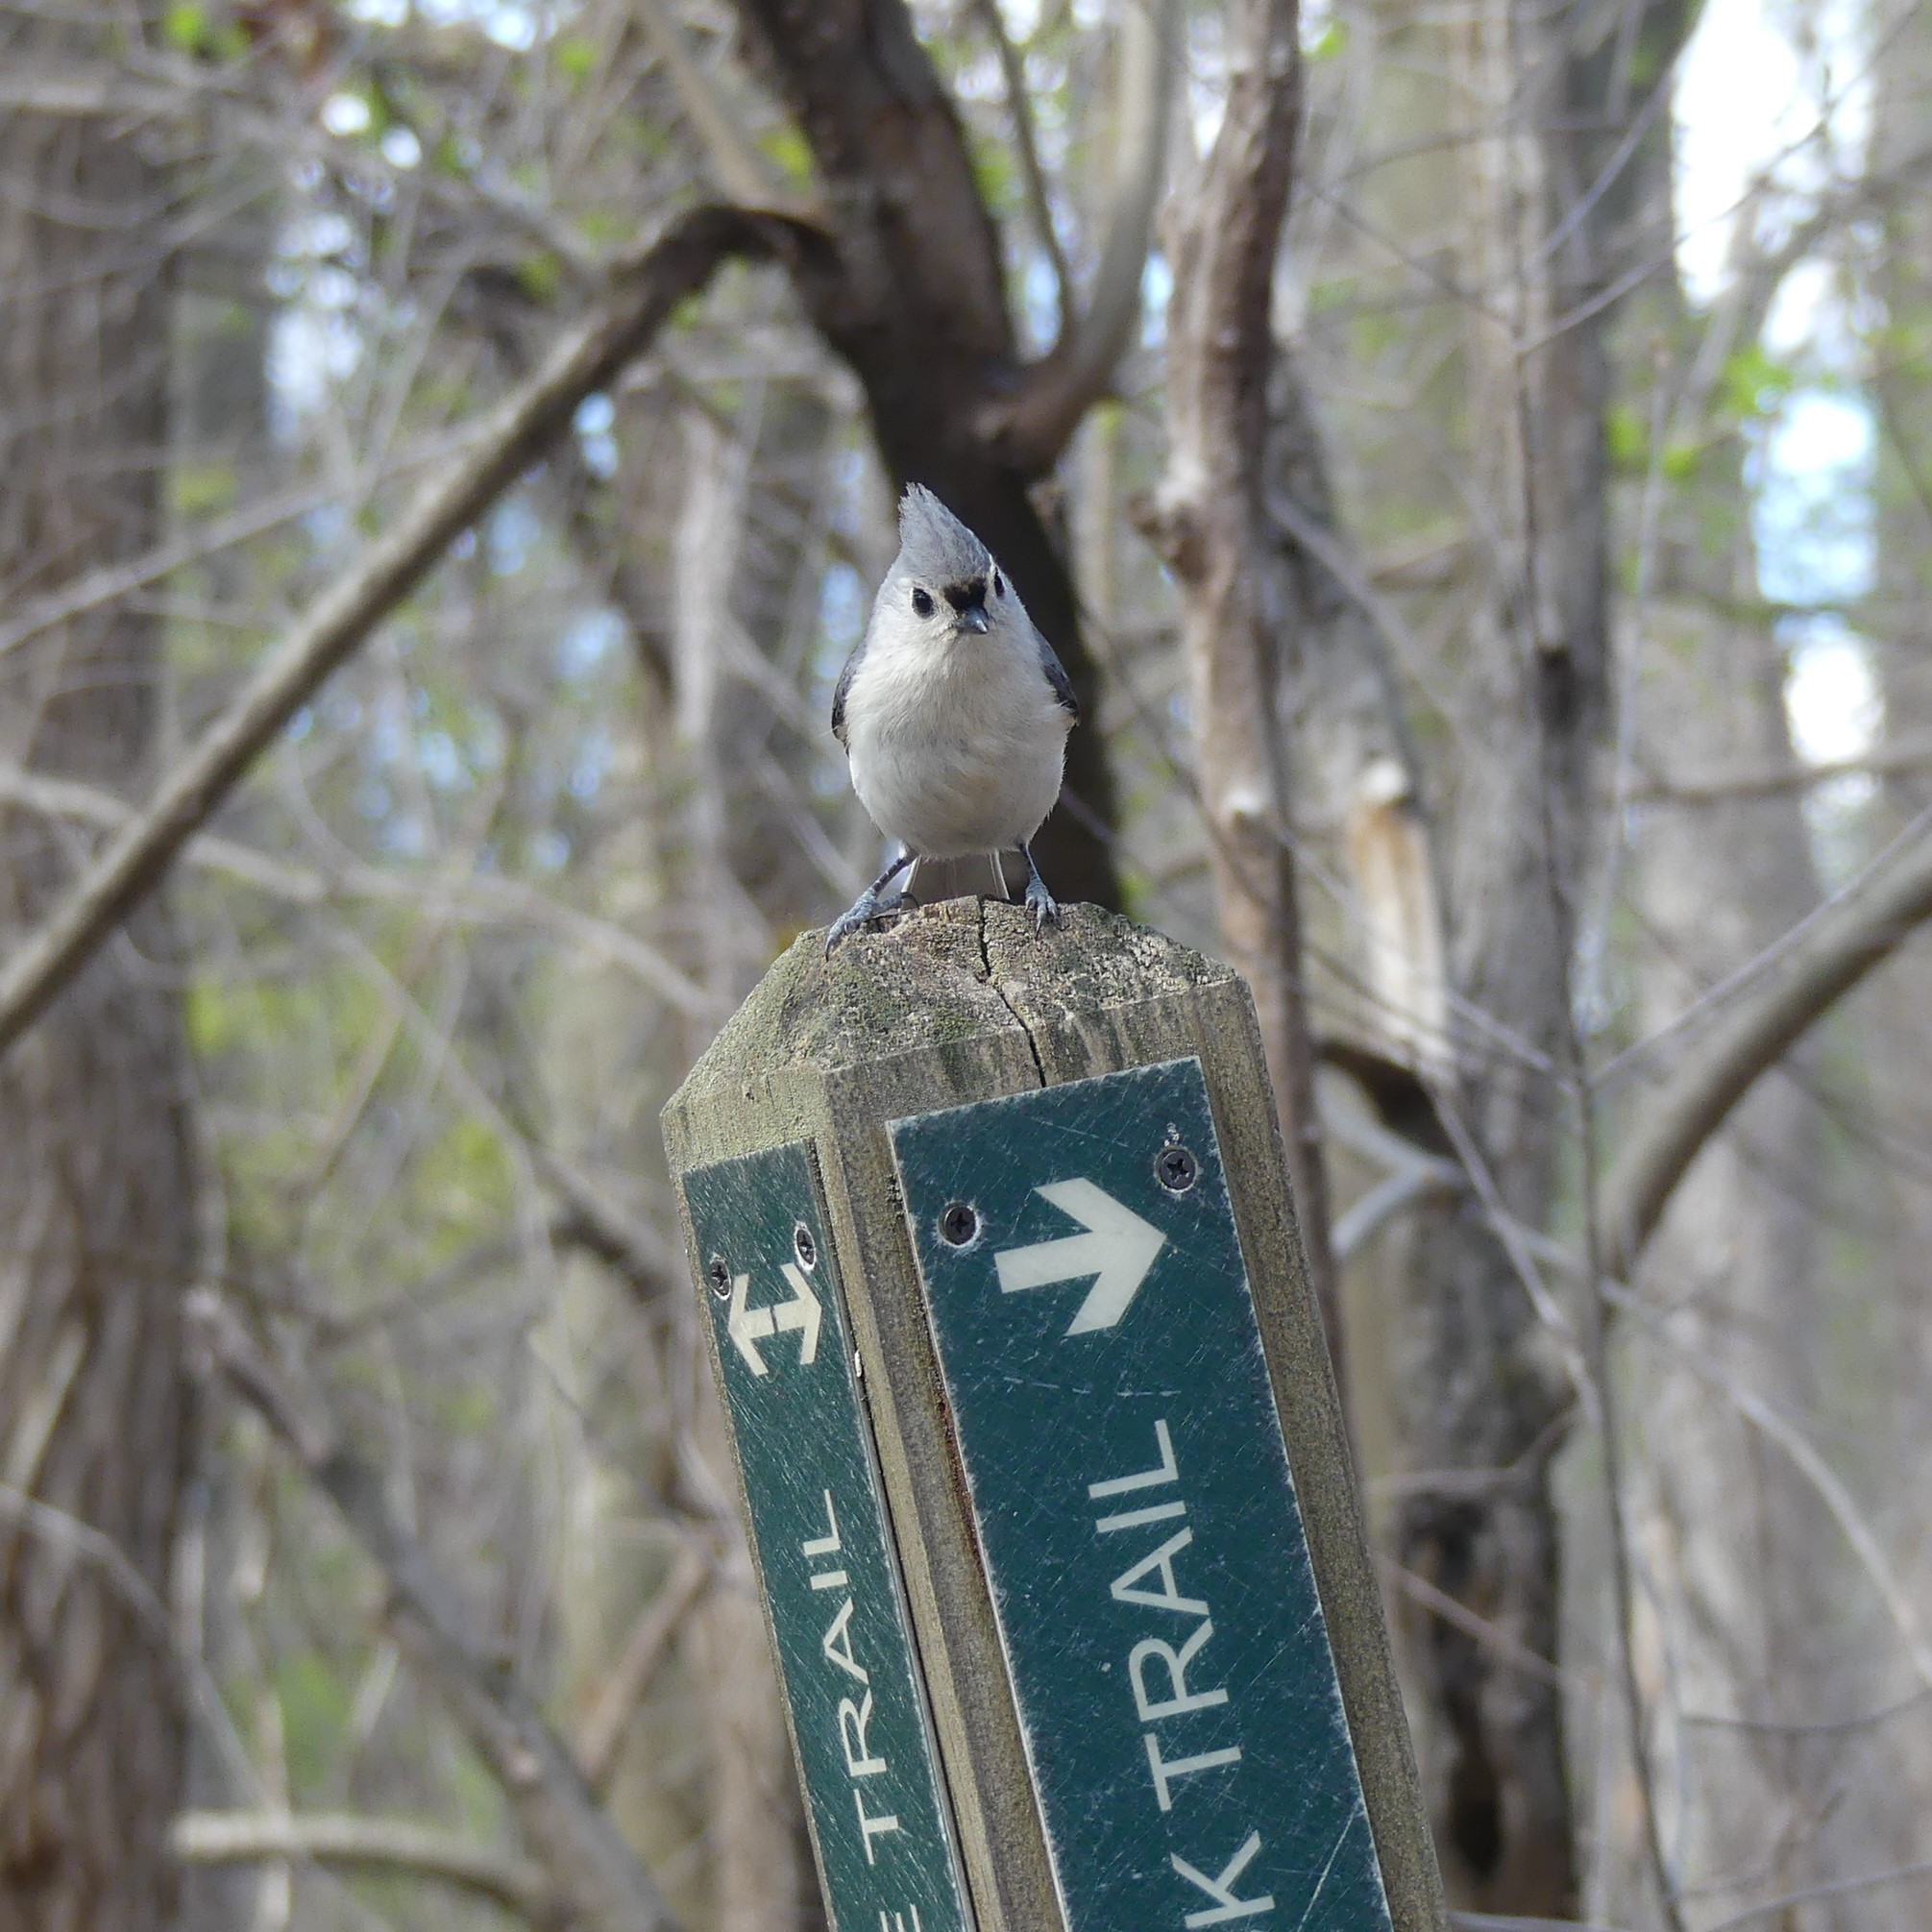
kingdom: Animalia
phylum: Chordata
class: Aves
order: Passeriformes
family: Paridae
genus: Baeolophus
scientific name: Baeolophus bicolor
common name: Tufted titmouse
